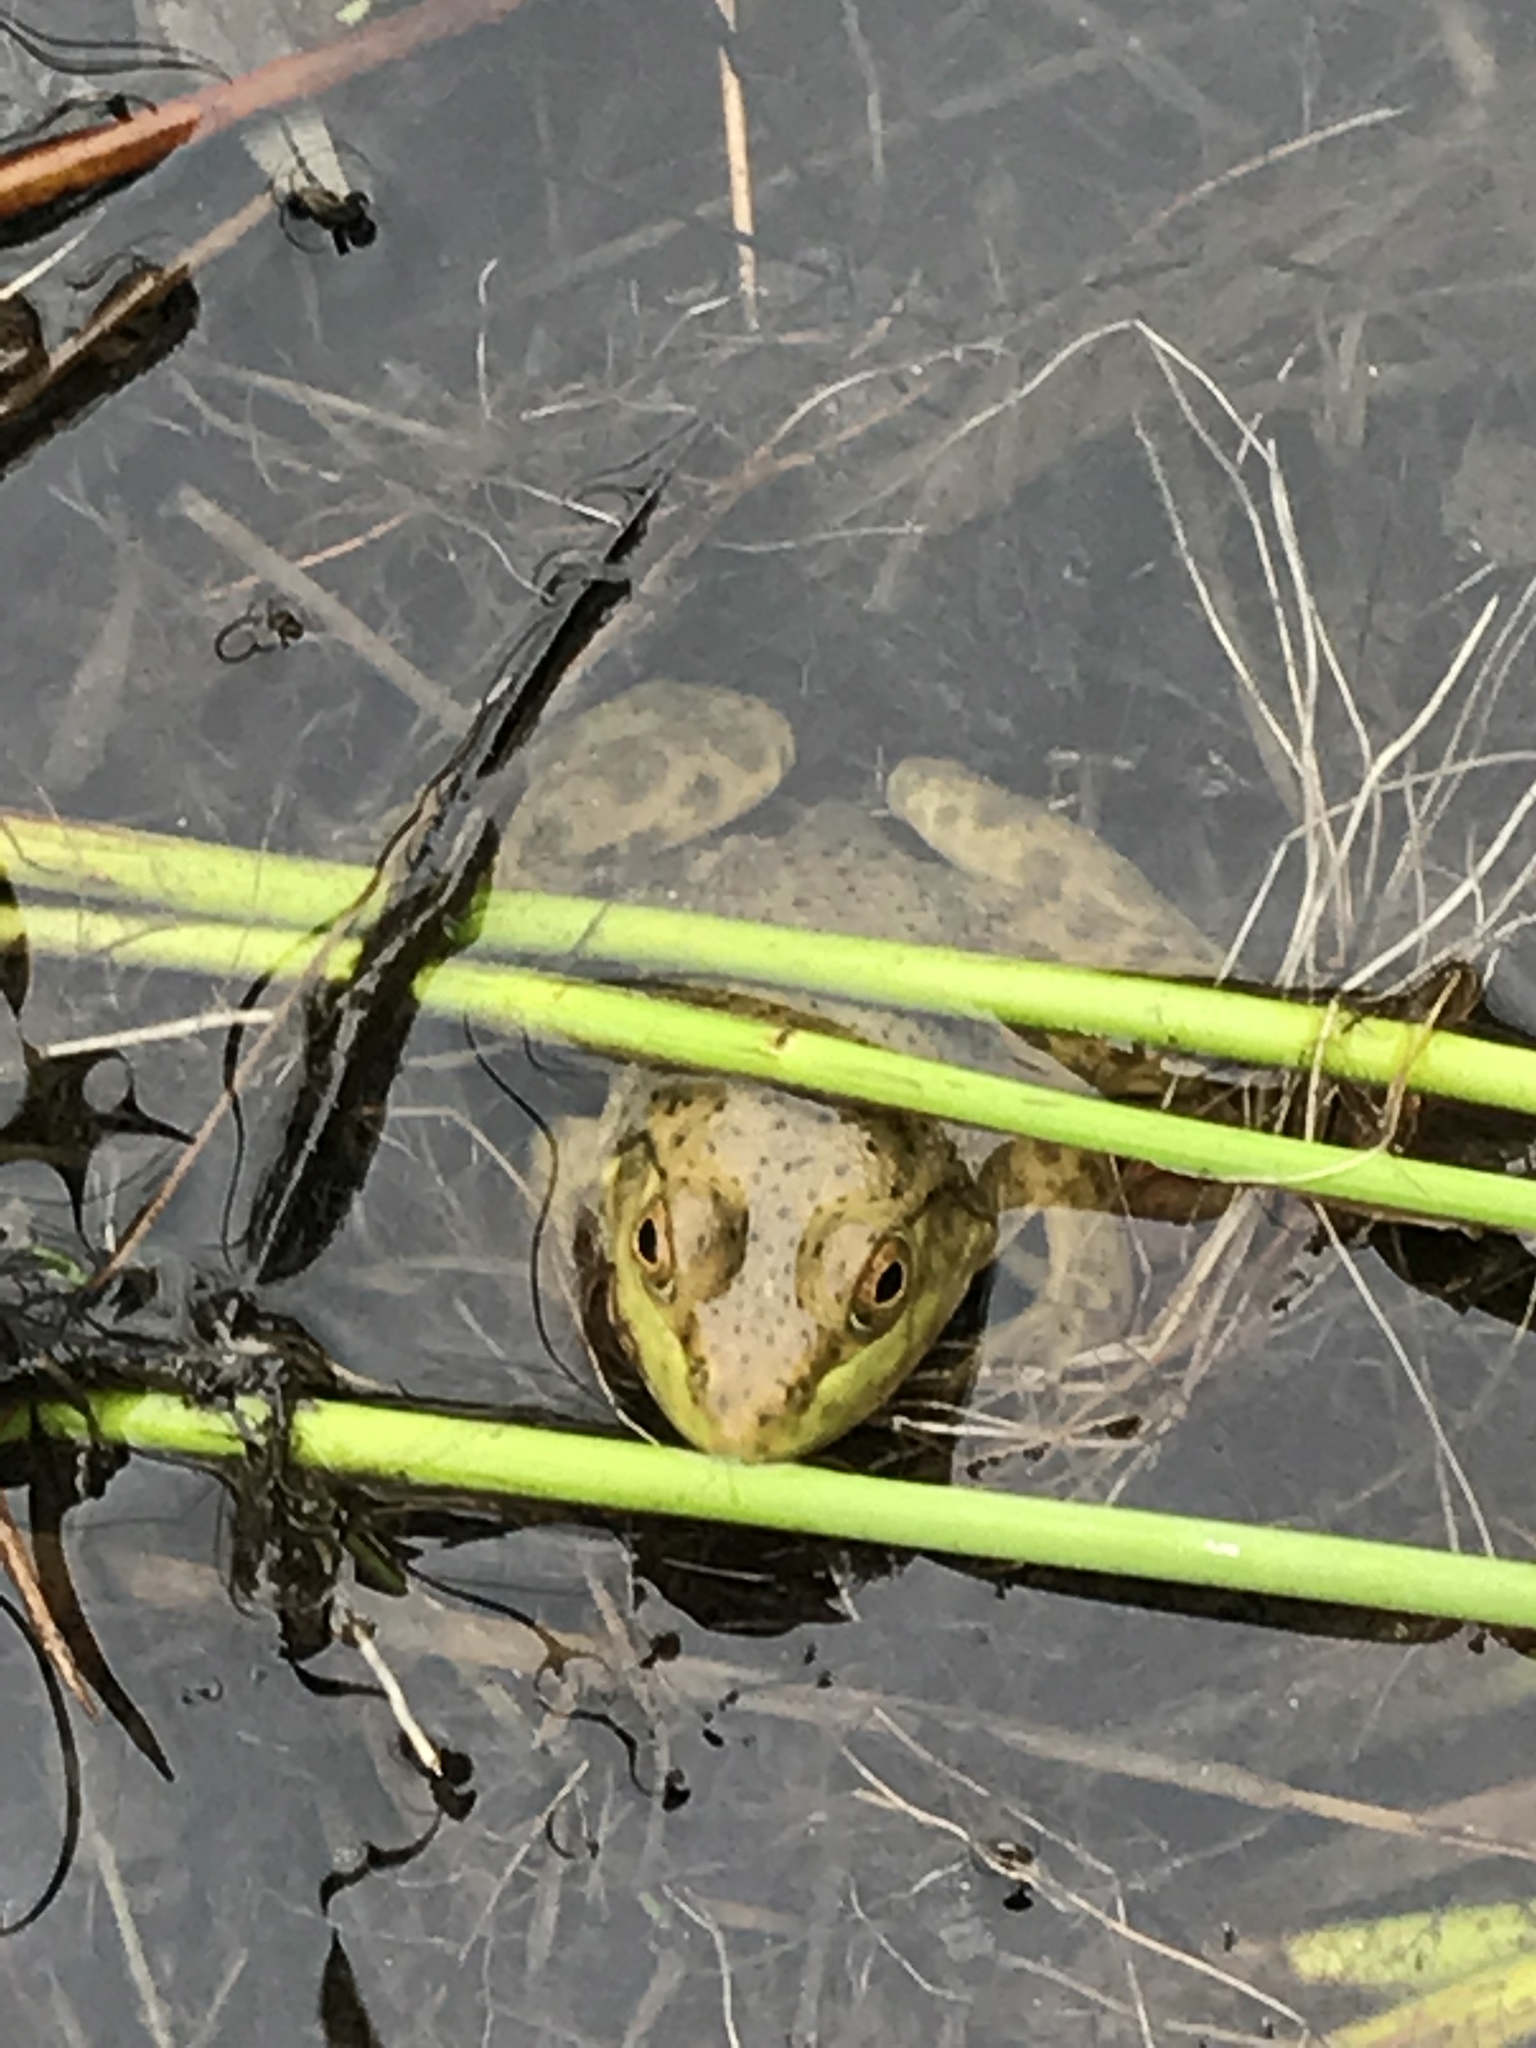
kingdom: Animalia
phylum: Chordata
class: Amphibia
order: Anura
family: Ranidae
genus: Lithobates
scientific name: Lithobates catesbeianus
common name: American bullfrog
